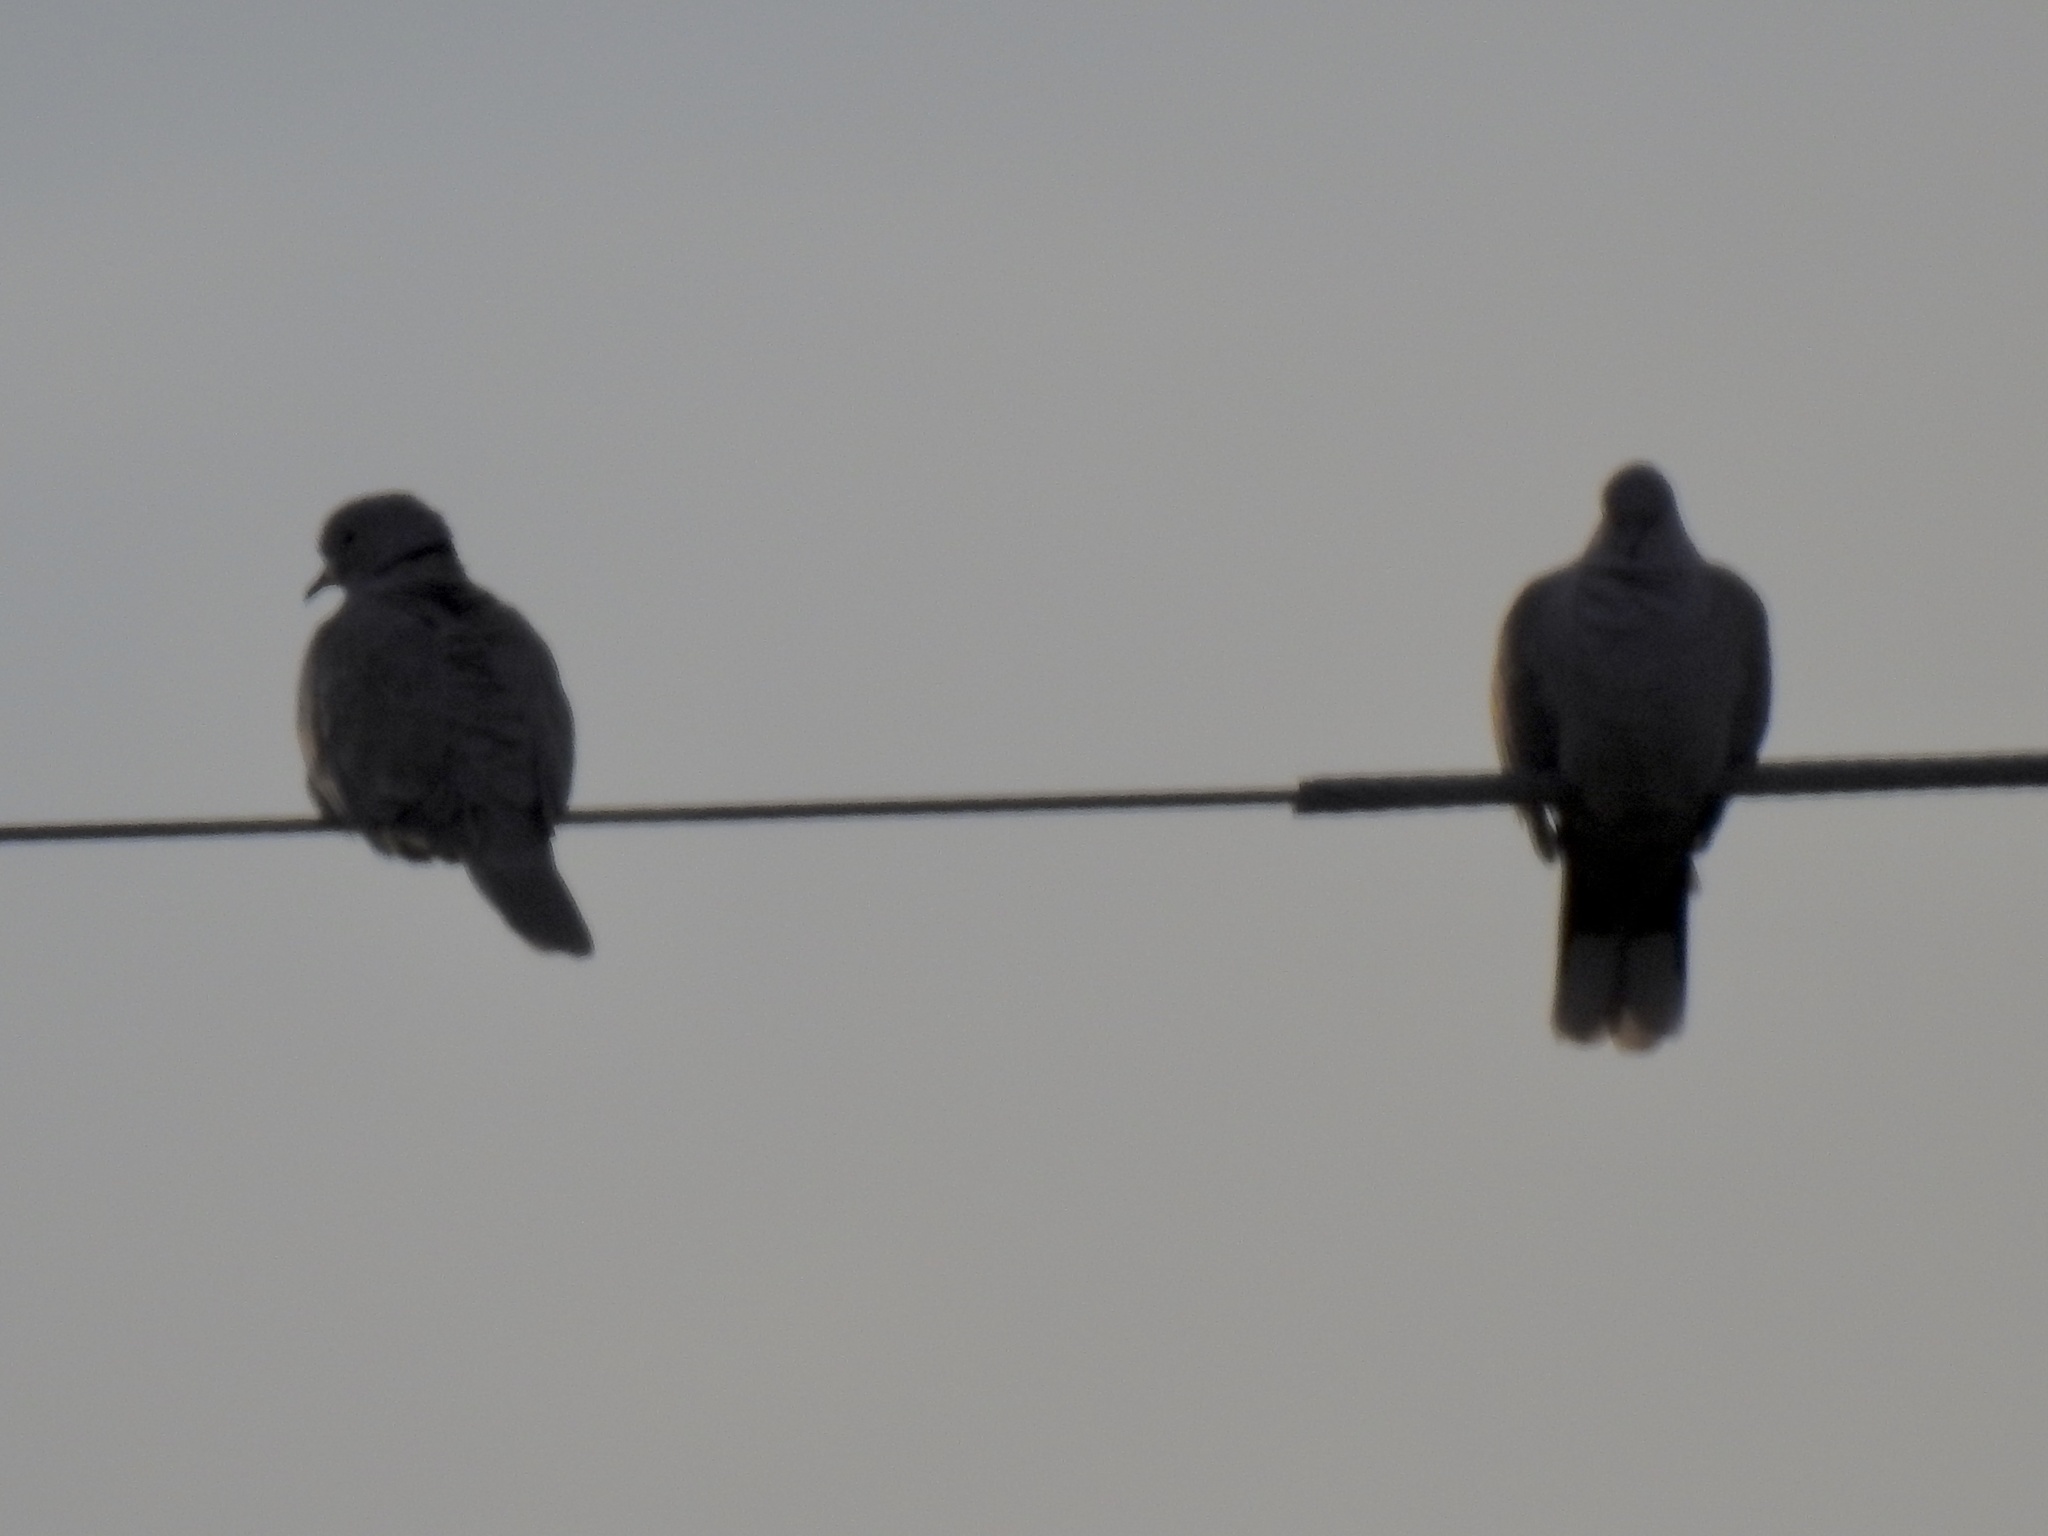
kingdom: Animalia
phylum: Chordata
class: Aves
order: Columbiformes
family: Columbidae
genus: Streptopelia
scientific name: Streptopelia decaocto
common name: Eurasian collared dove
